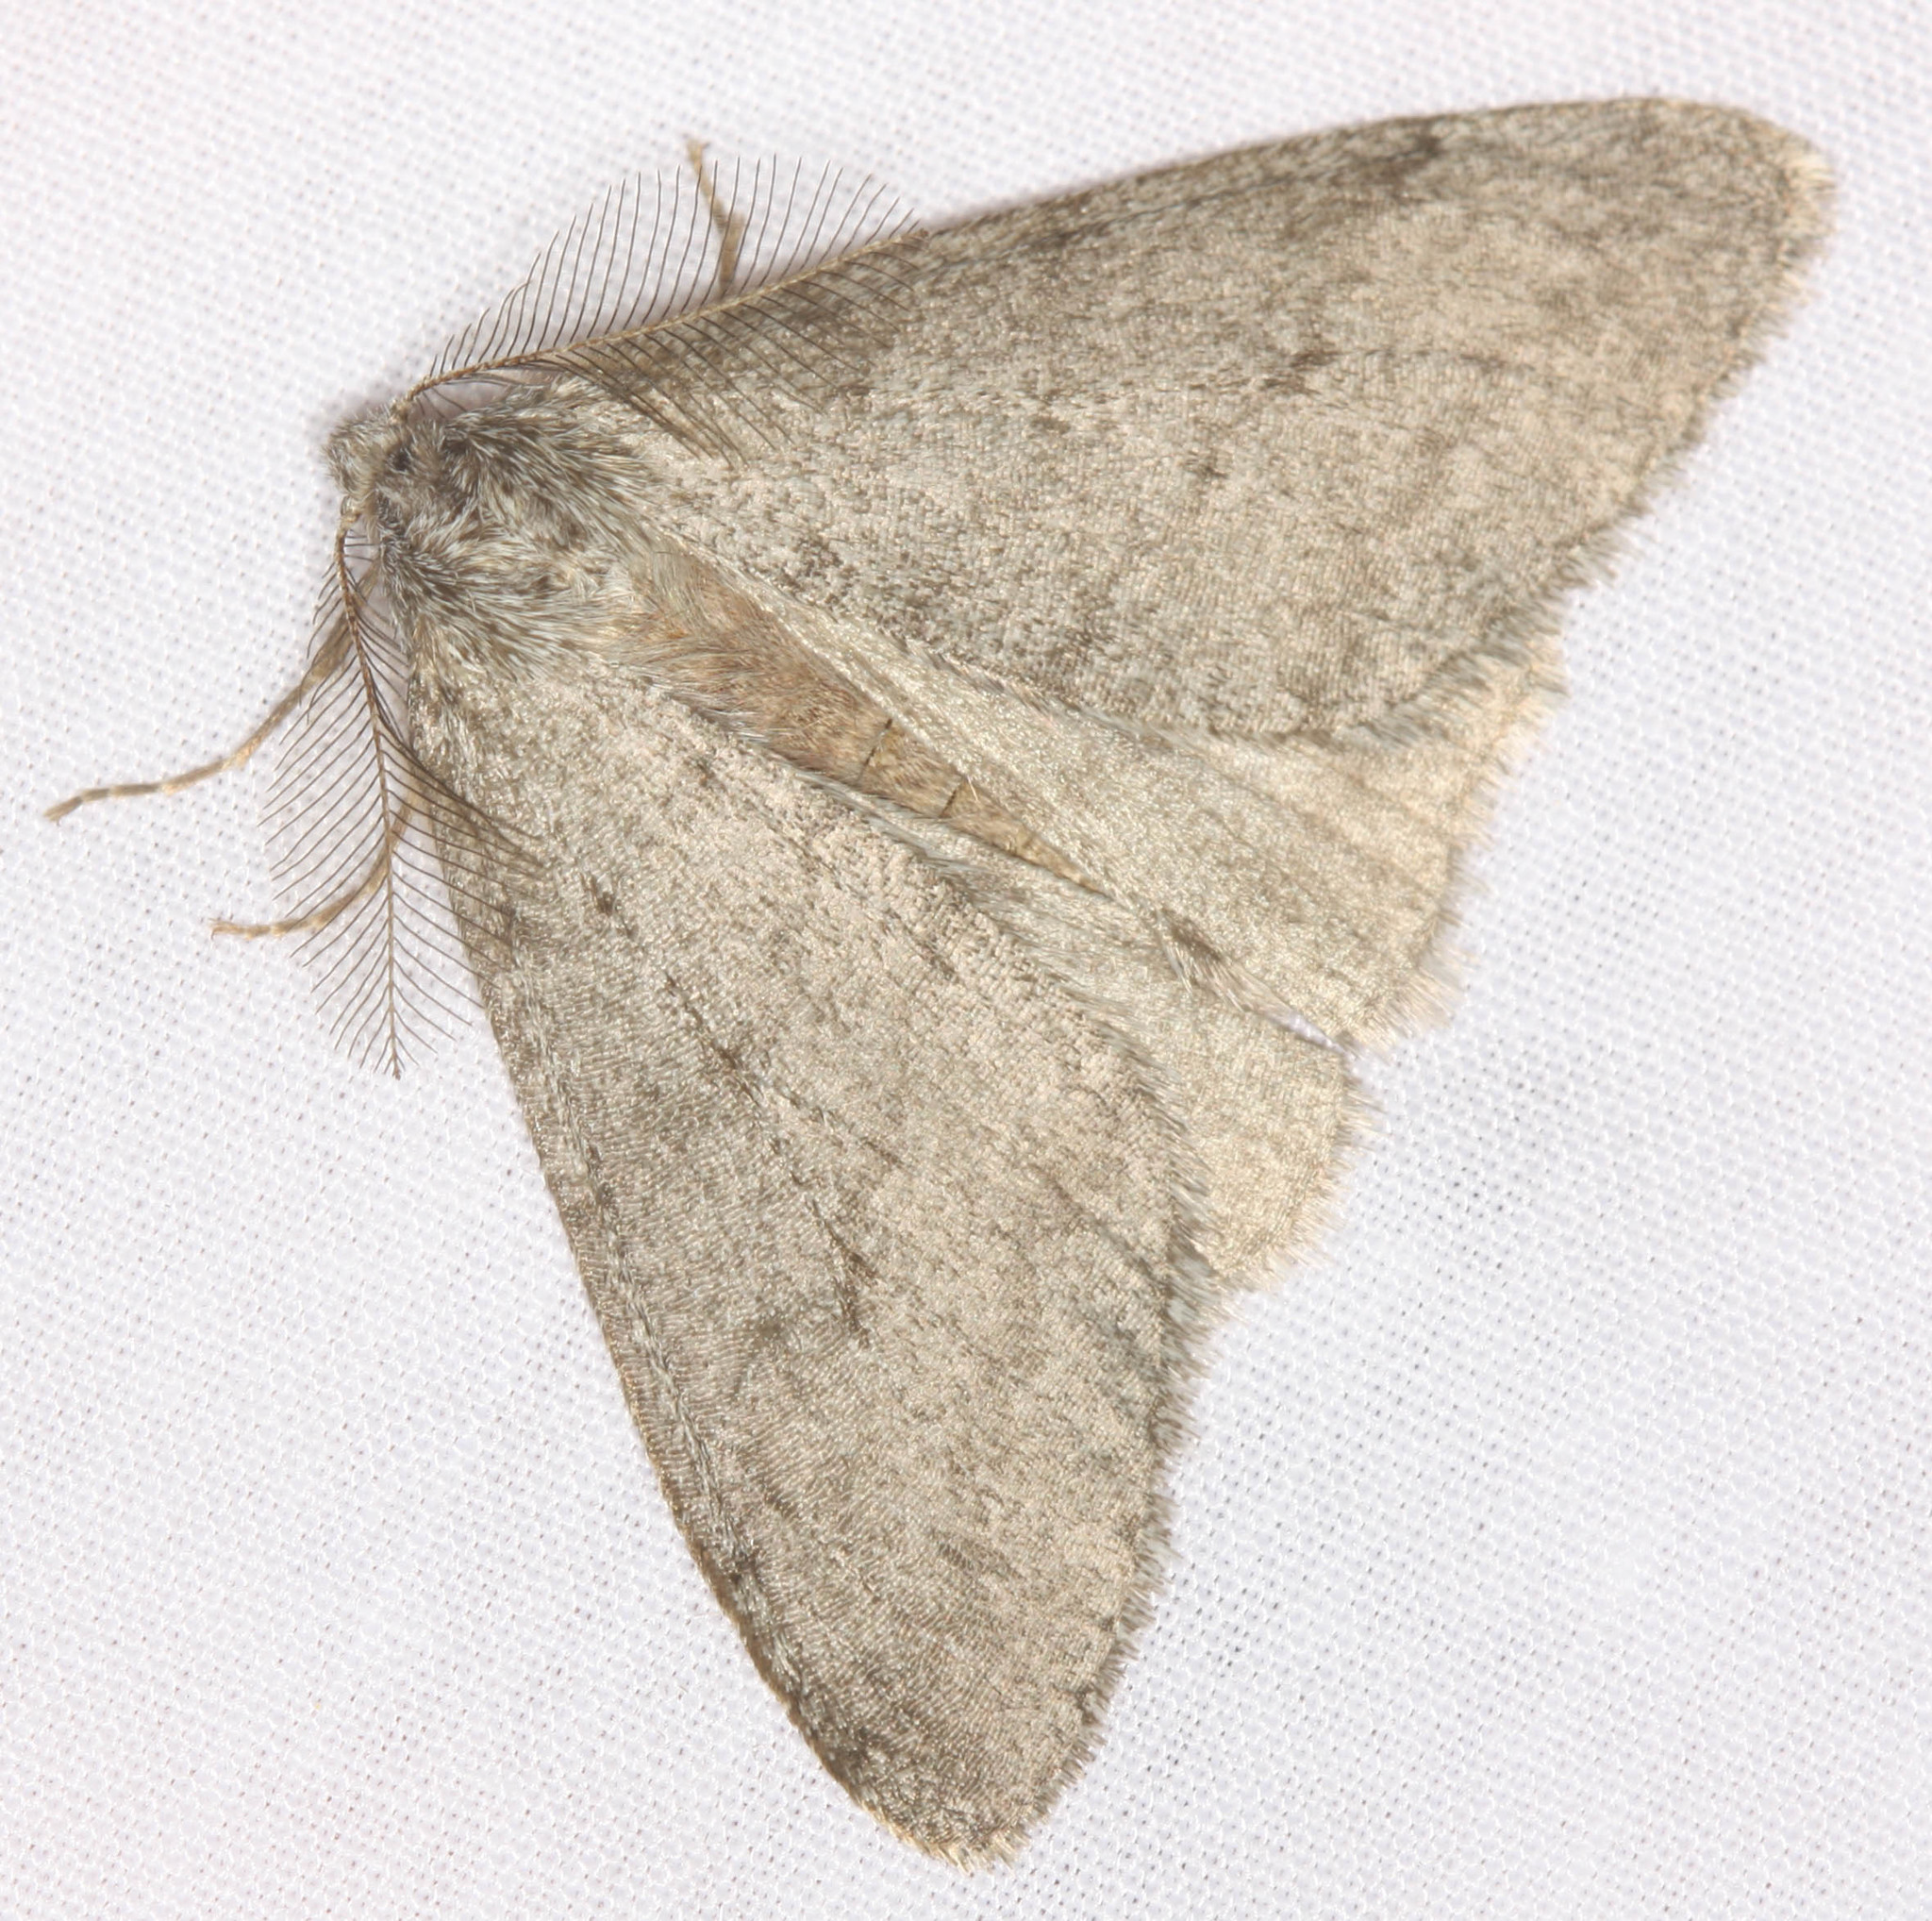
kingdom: Animalia
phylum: Arthropoda
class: Insecta
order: Lepidoptera
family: Geometridae
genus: Phigalia
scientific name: Phigalia plumogeraria
